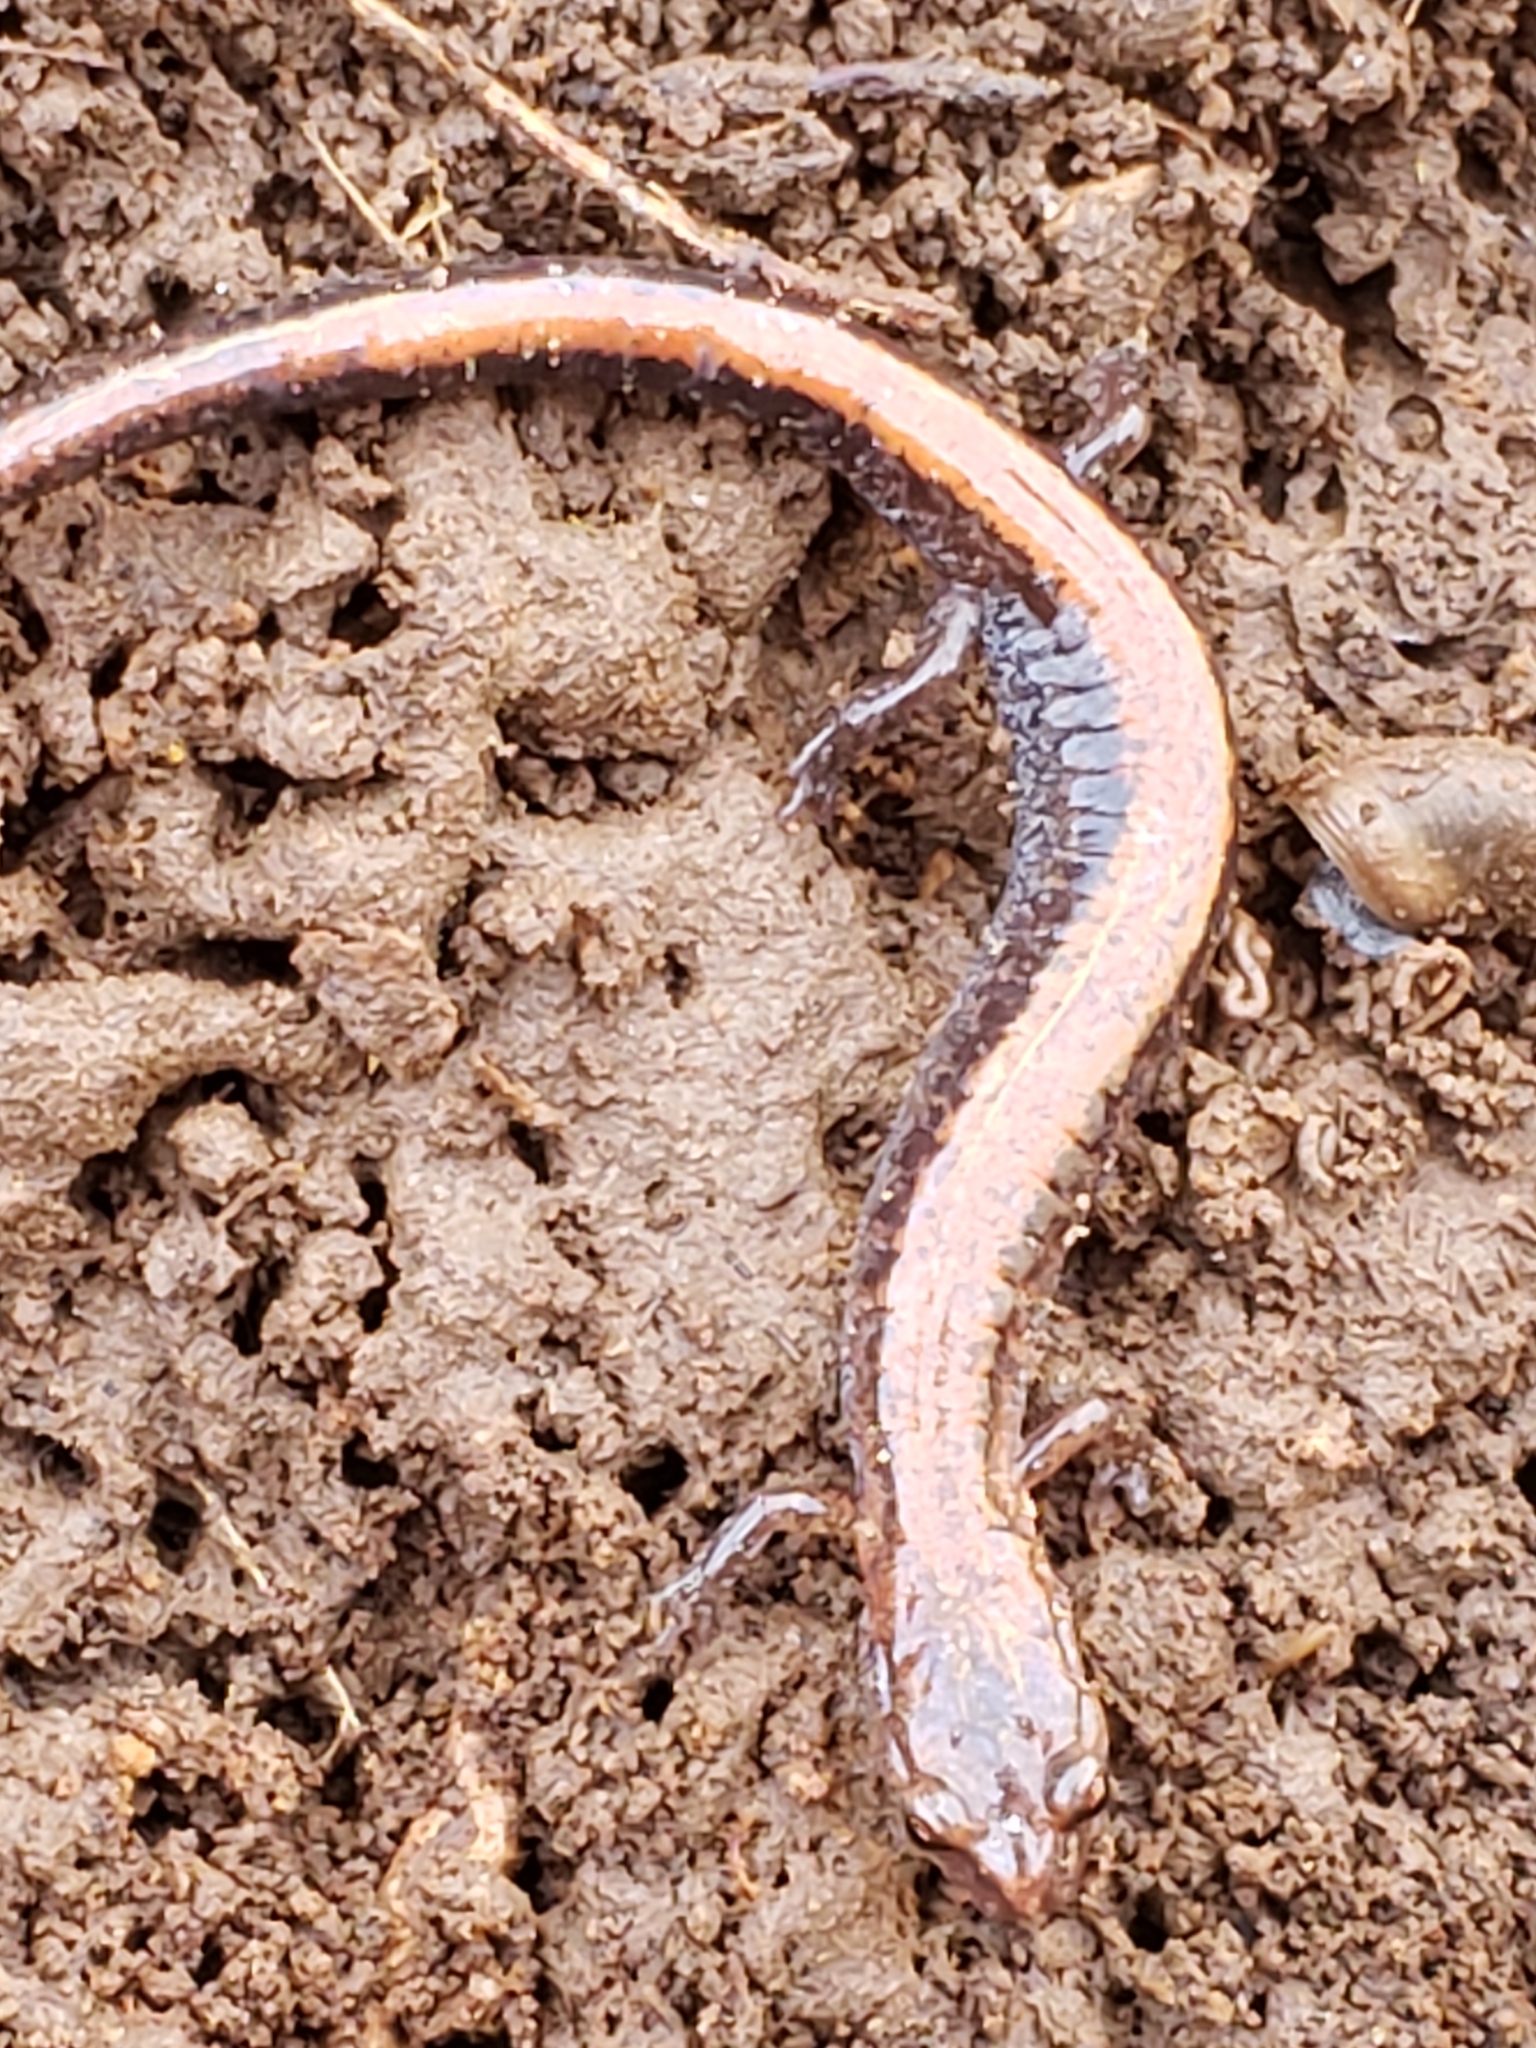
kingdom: Animalia
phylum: Chordata
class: Amphibia
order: Caudata
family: Plethodontidae
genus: Plethodon
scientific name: Plethodon cinereus
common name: Redback salamander
